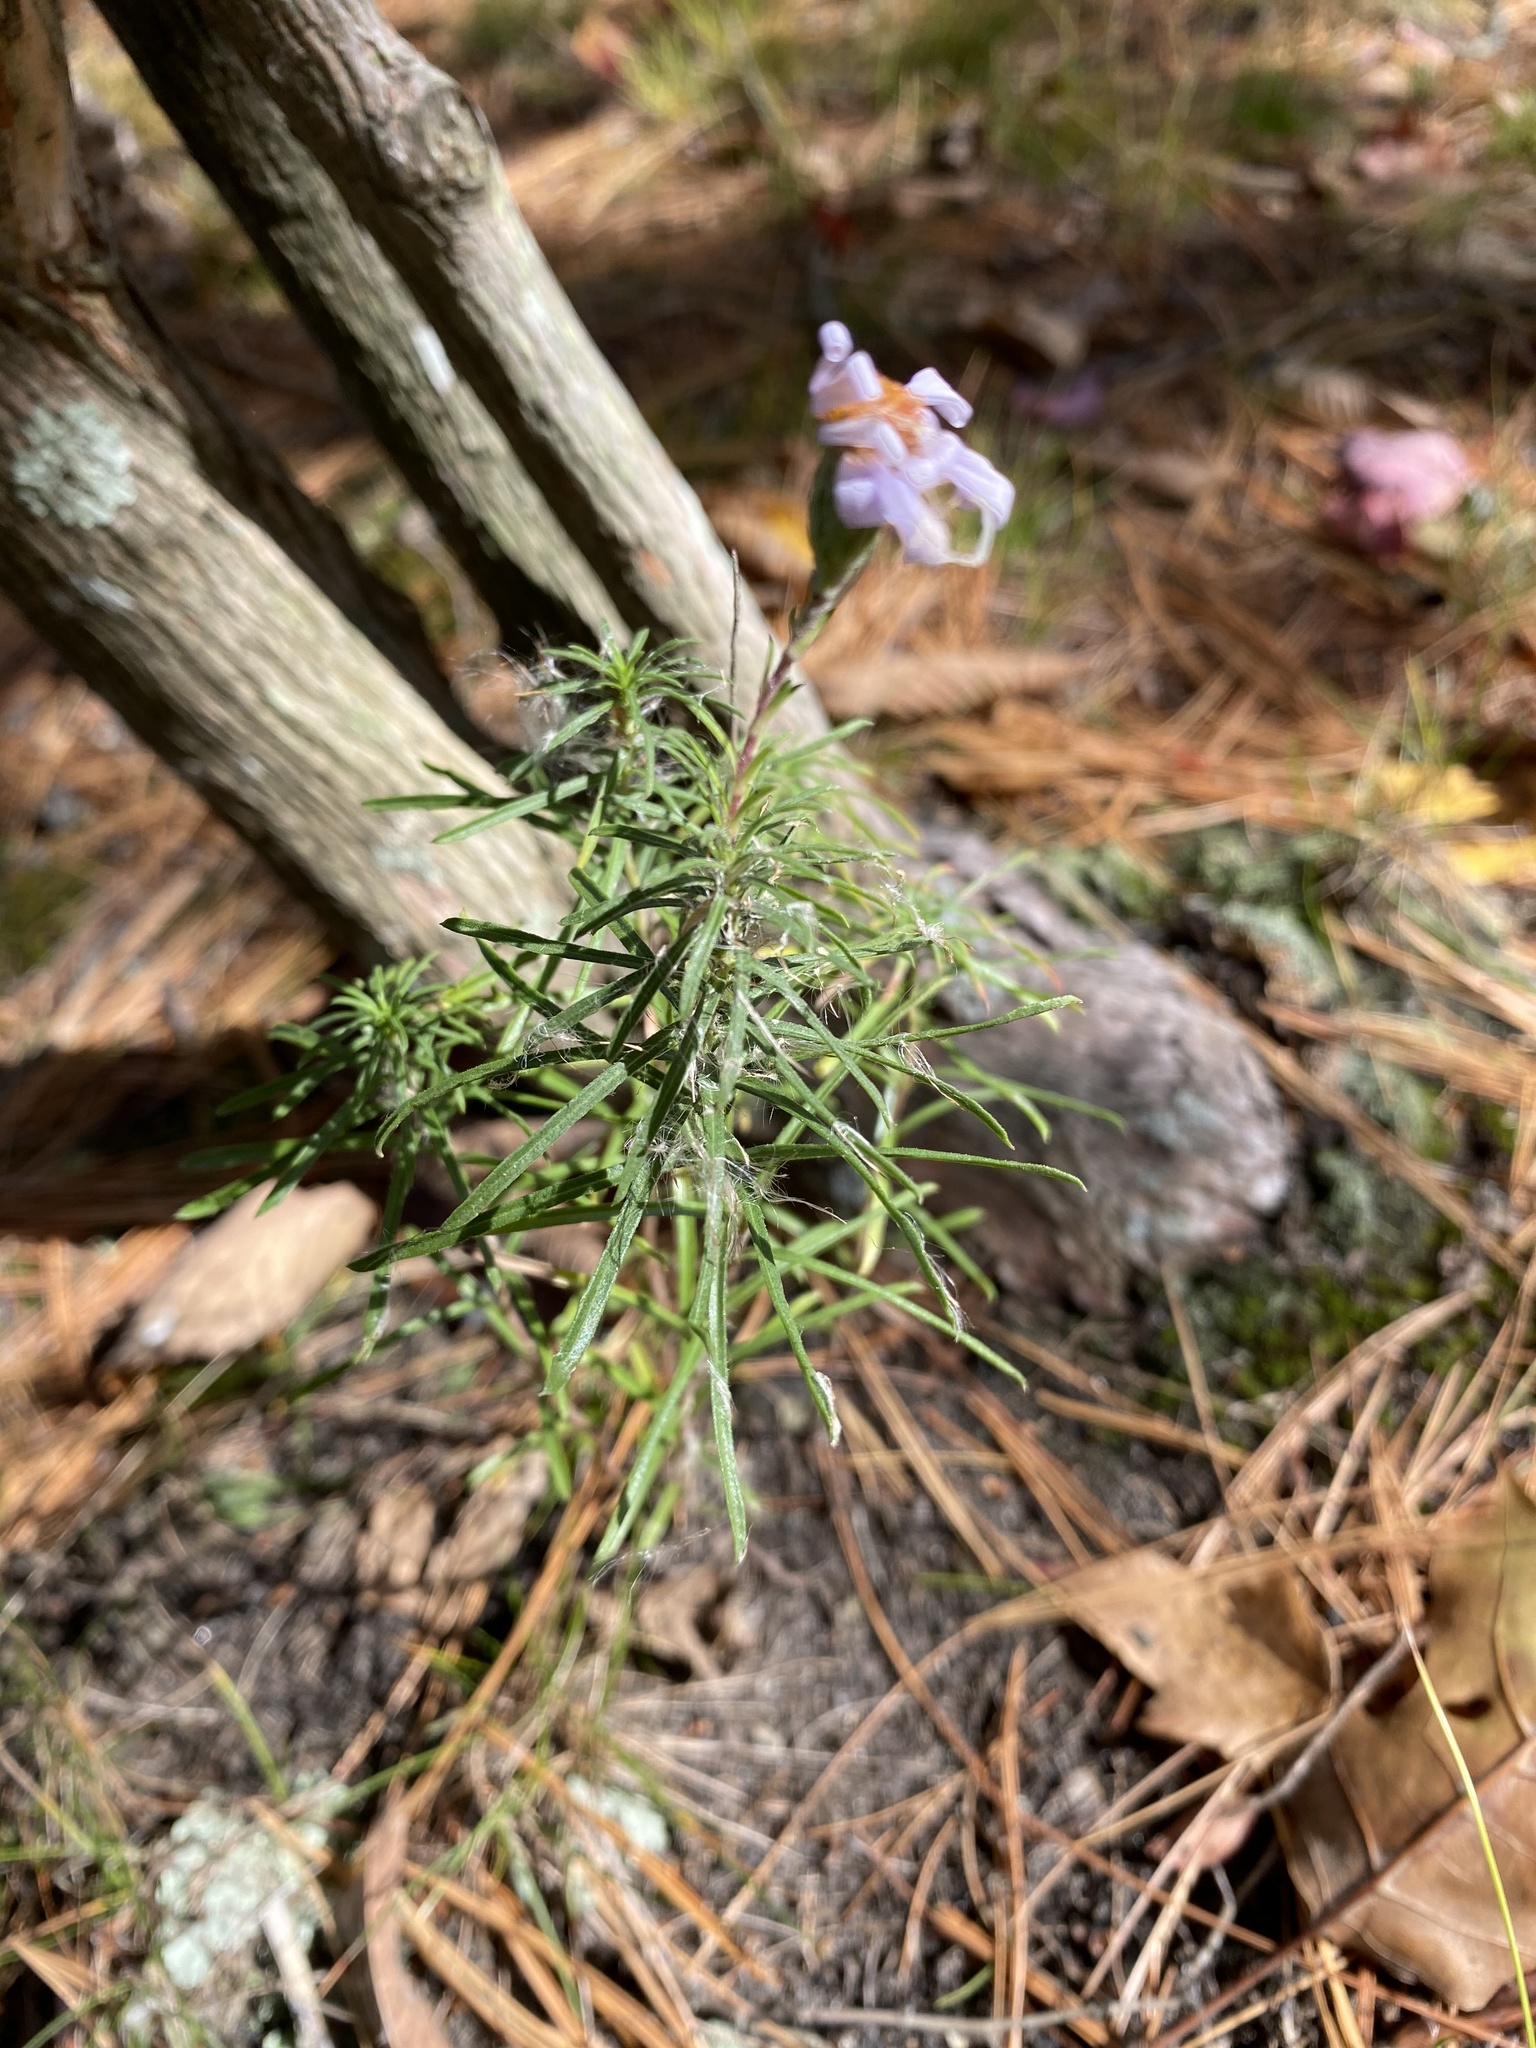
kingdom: Plantae
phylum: Tracheophyta
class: Magnoliopsida
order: Asterales
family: Asteraceae
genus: Ionactis
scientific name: Ionactis linariifolia
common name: Flax-leaf aster
